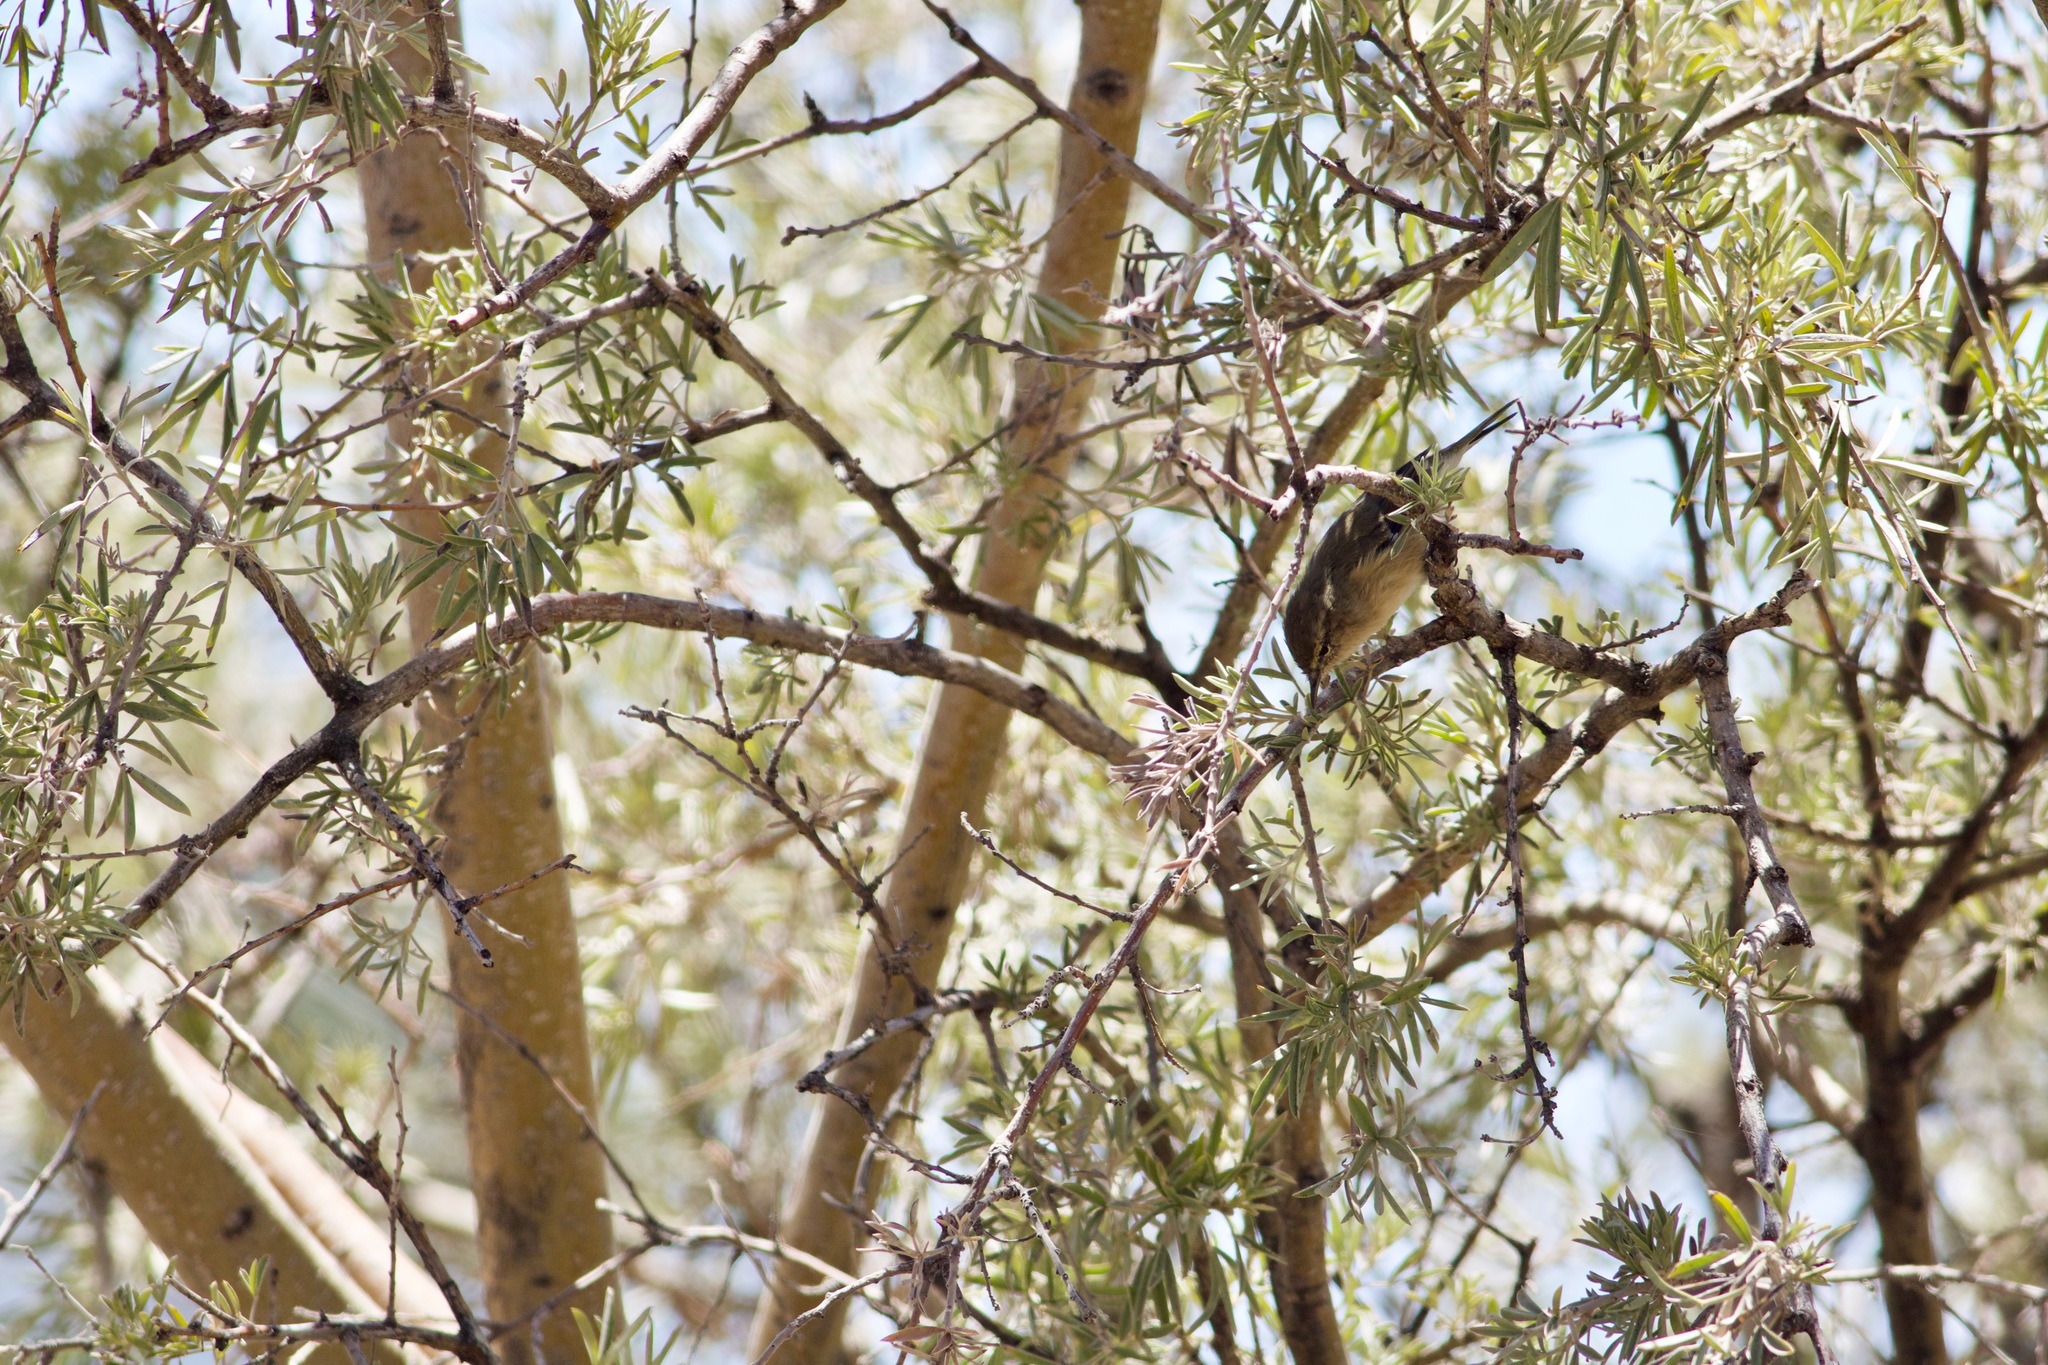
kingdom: Animalia
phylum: Chordata
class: Aves
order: Passeriformes
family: Phylloscopidae
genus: Phylloscopus
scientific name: Phylloscopus canariensis
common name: Canary islands chiffchaff
